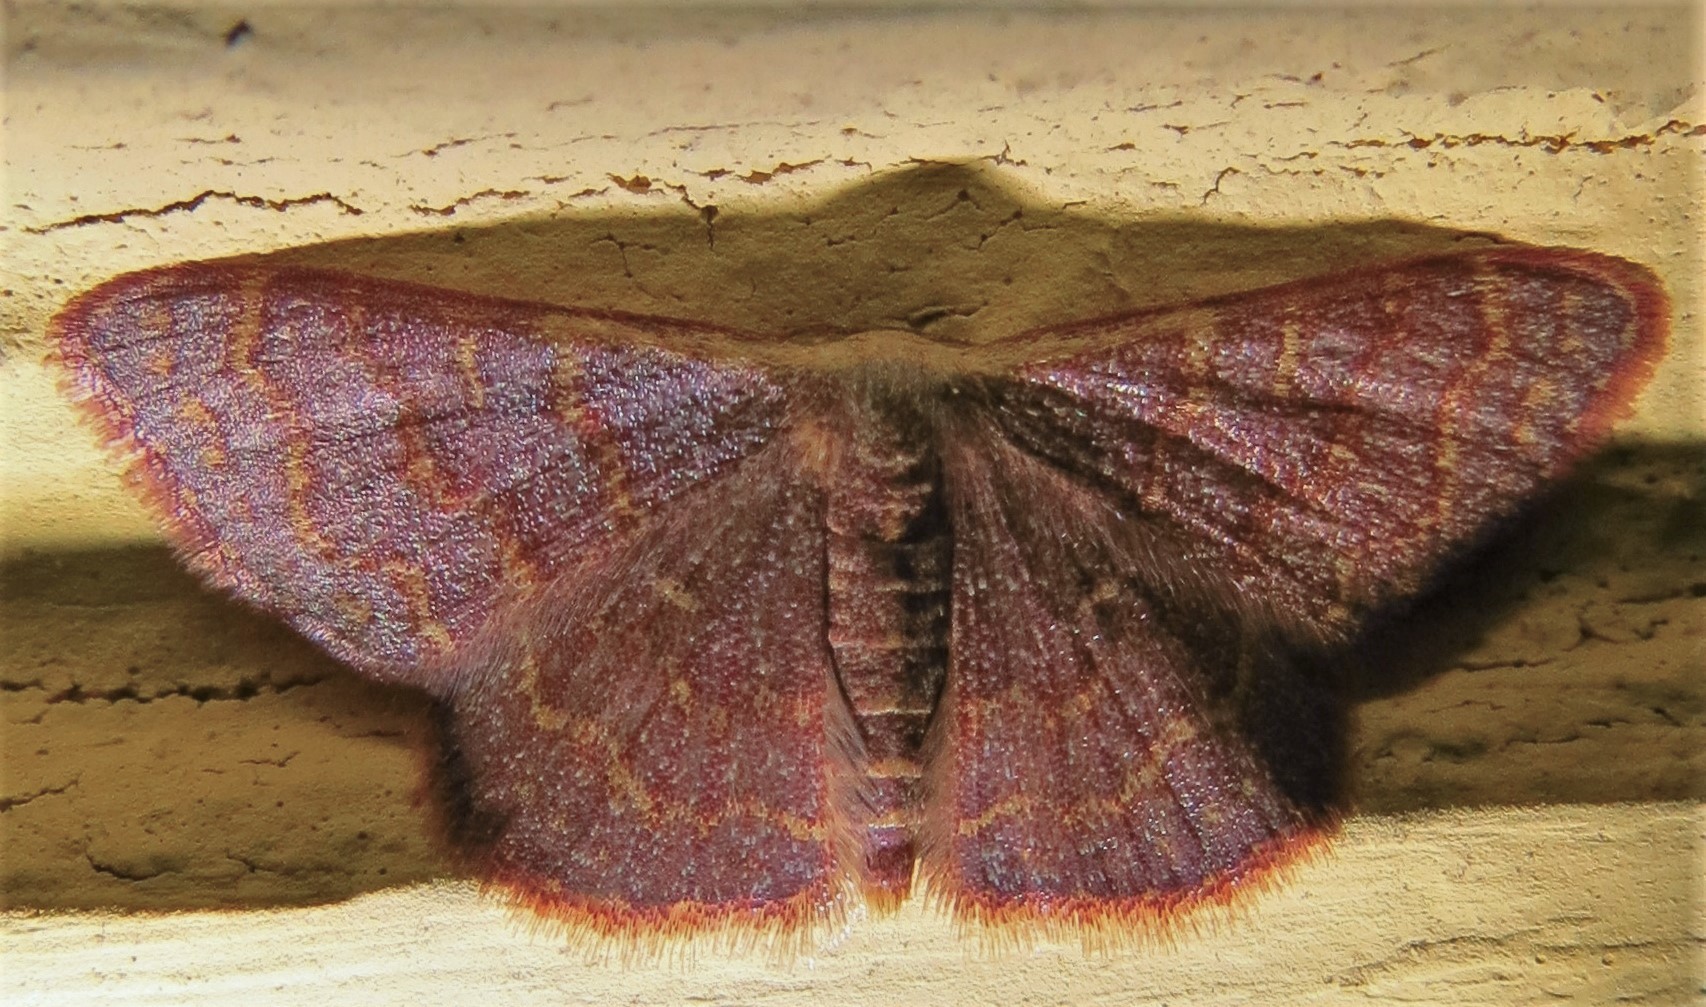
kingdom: Animalia
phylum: Arthropoda
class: Insecta
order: Lepidoptera
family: Geometridae
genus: Leptostales
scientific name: Leptostales pannaria
